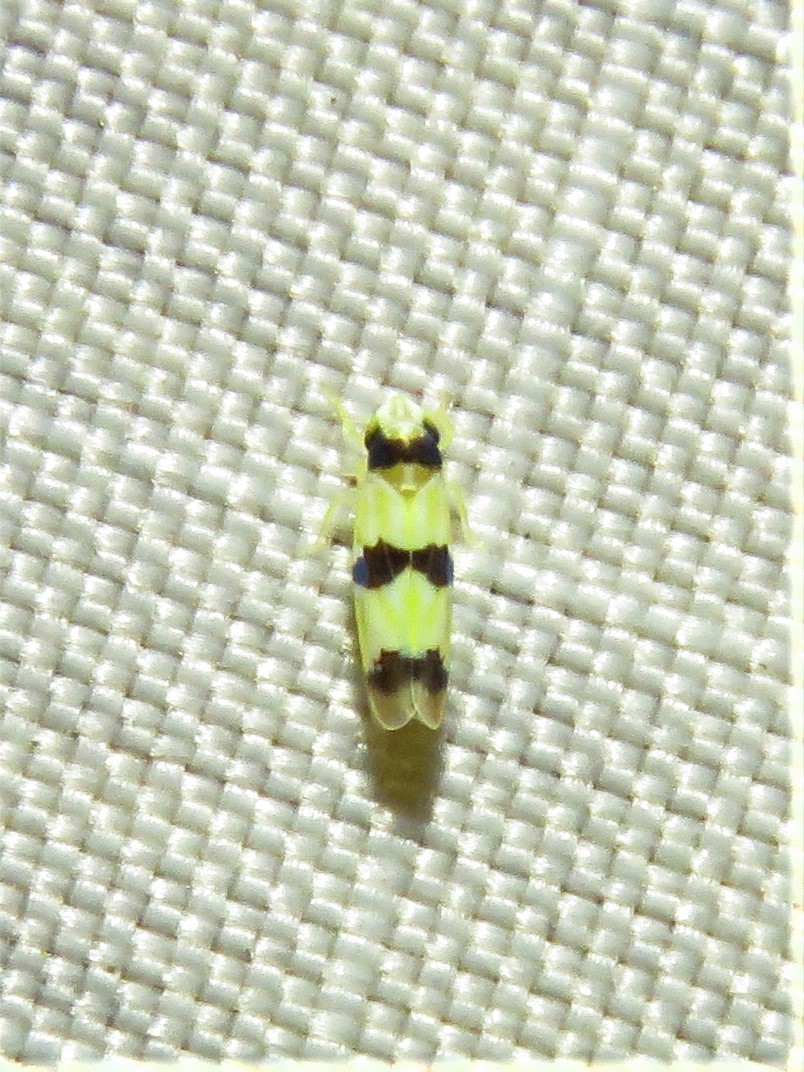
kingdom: Animalia
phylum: Arthropoda
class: Insecta
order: Hemiptera
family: Cicadellidae
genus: Erythroneura
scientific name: Erythroneura cymbium
